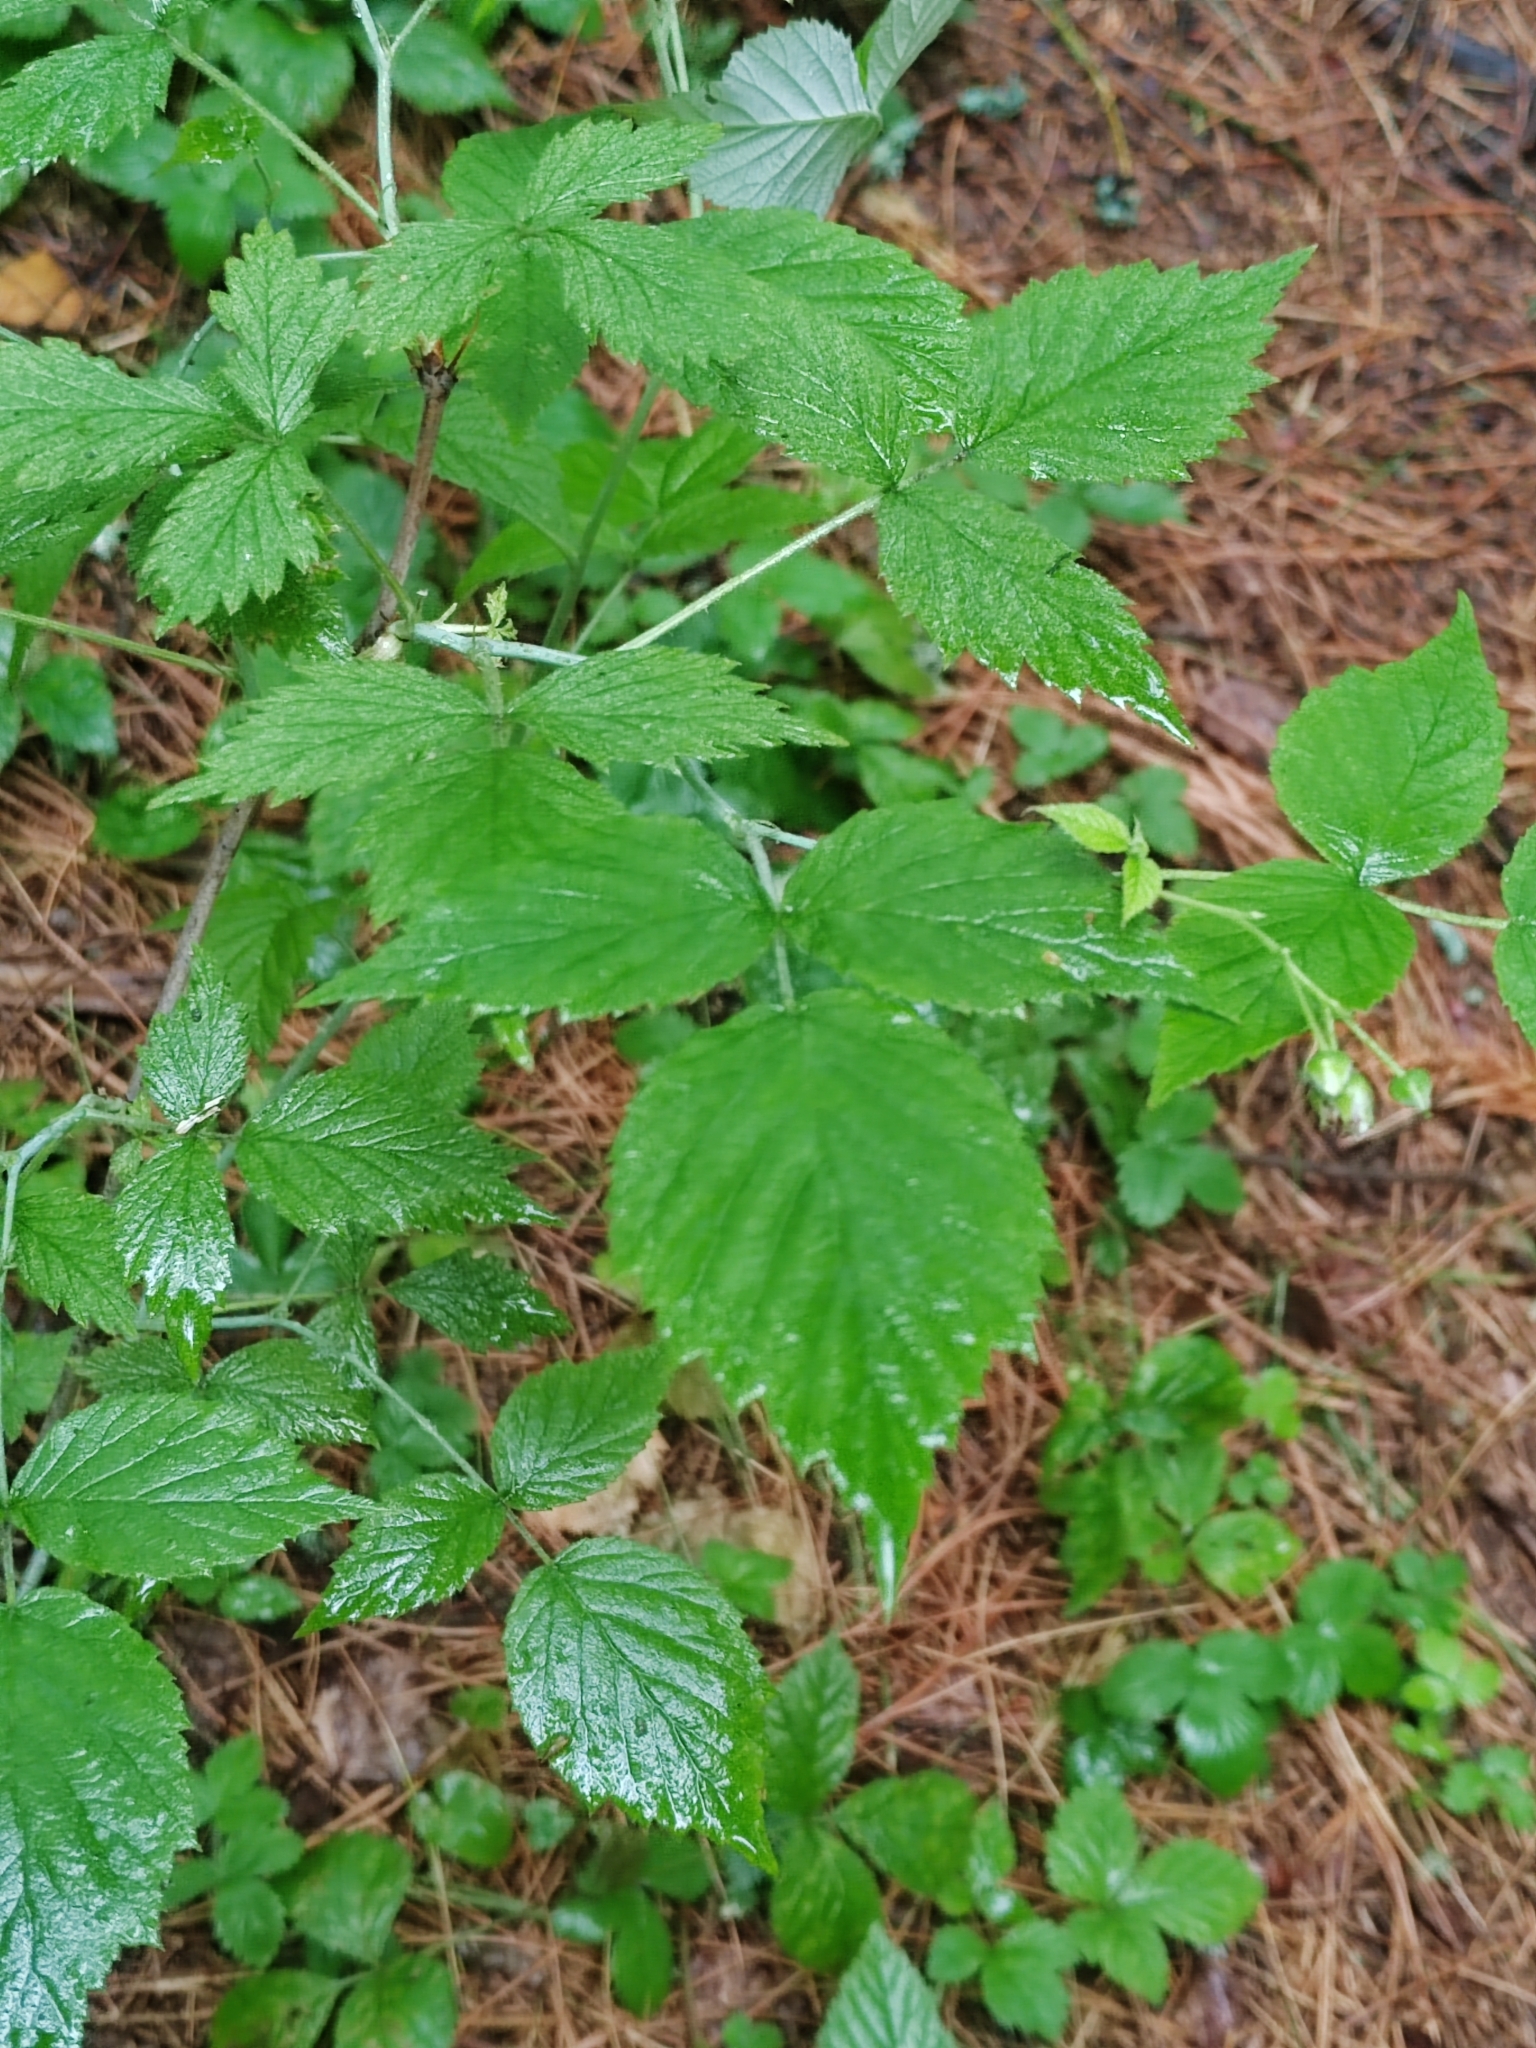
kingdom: Plantae
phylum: Tracheophyta
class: Magnoliopsida
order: Rosales
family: Rosaceae
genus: Rubus
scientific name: Rubus idaeus
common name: Raspberry
